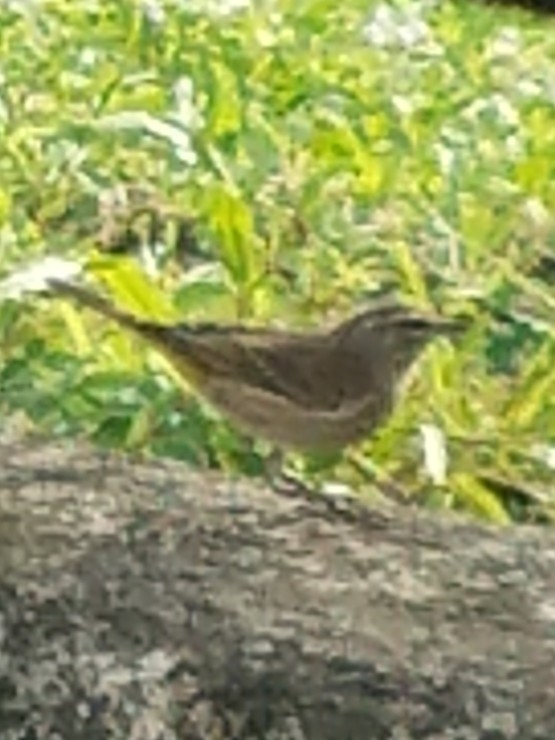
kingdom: Animalia
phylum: Chordata
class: Aves
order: Passeriformes
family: Parulidae
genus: Setophaga
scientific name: Setophaga palmarum
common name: Palm warbler
